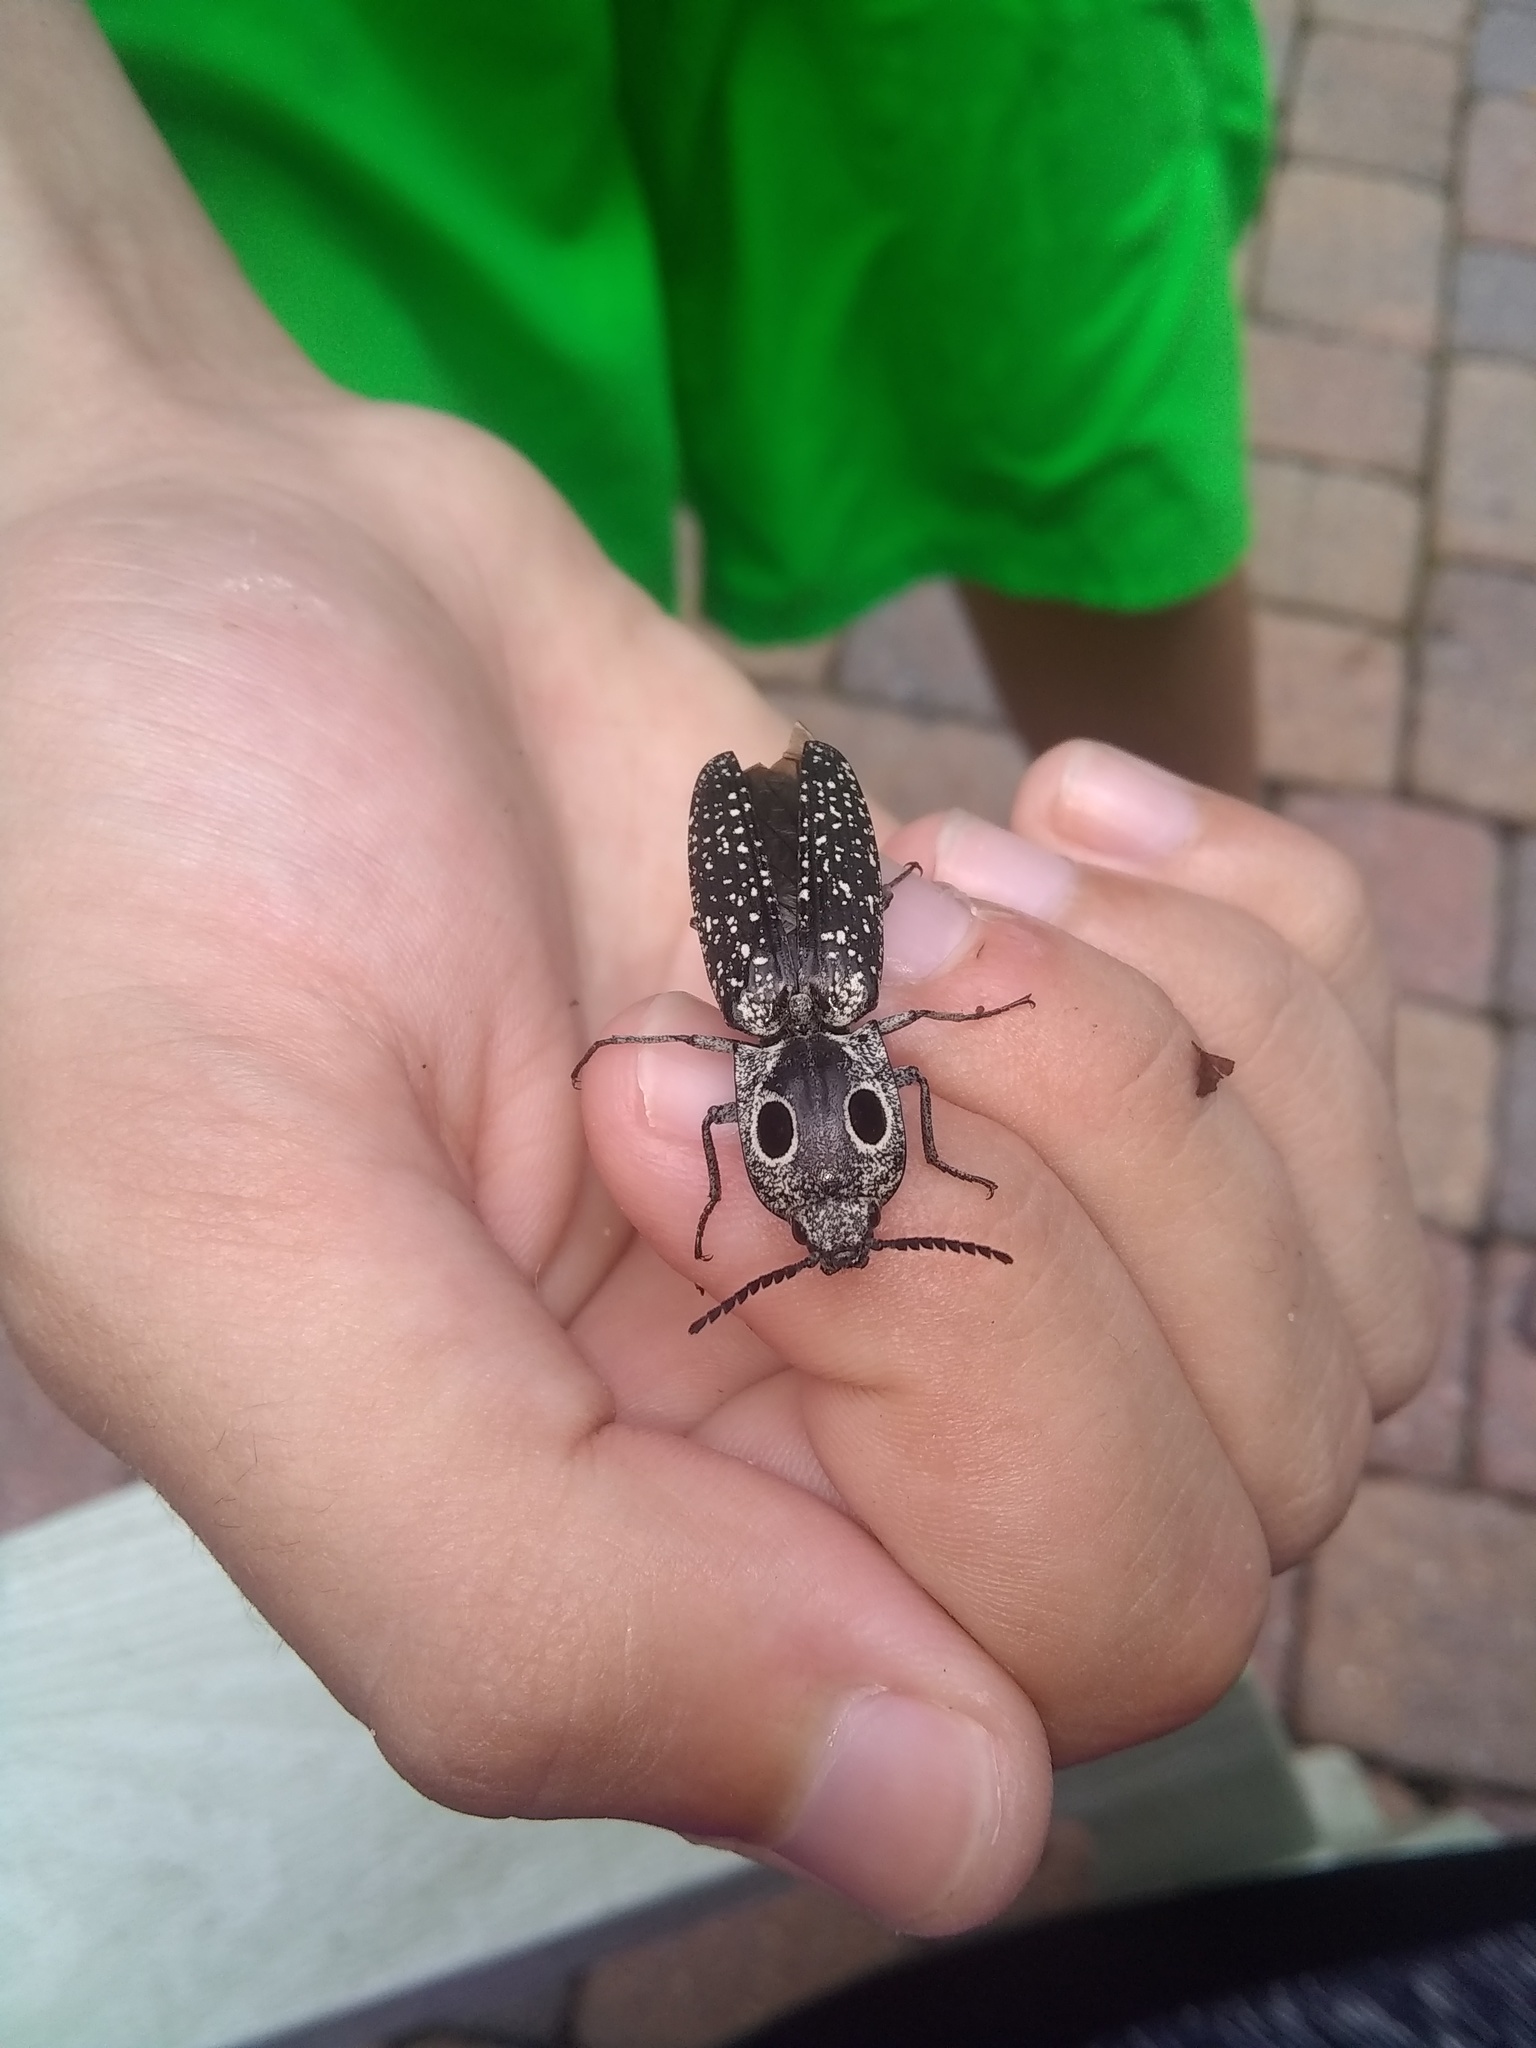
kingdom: Animalia
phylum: Arthropoda
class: Insecta
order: Coleoptera
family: Elateridae
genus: Alaus
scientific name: Alaus oculatus
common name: Eastern eyed click beetle
